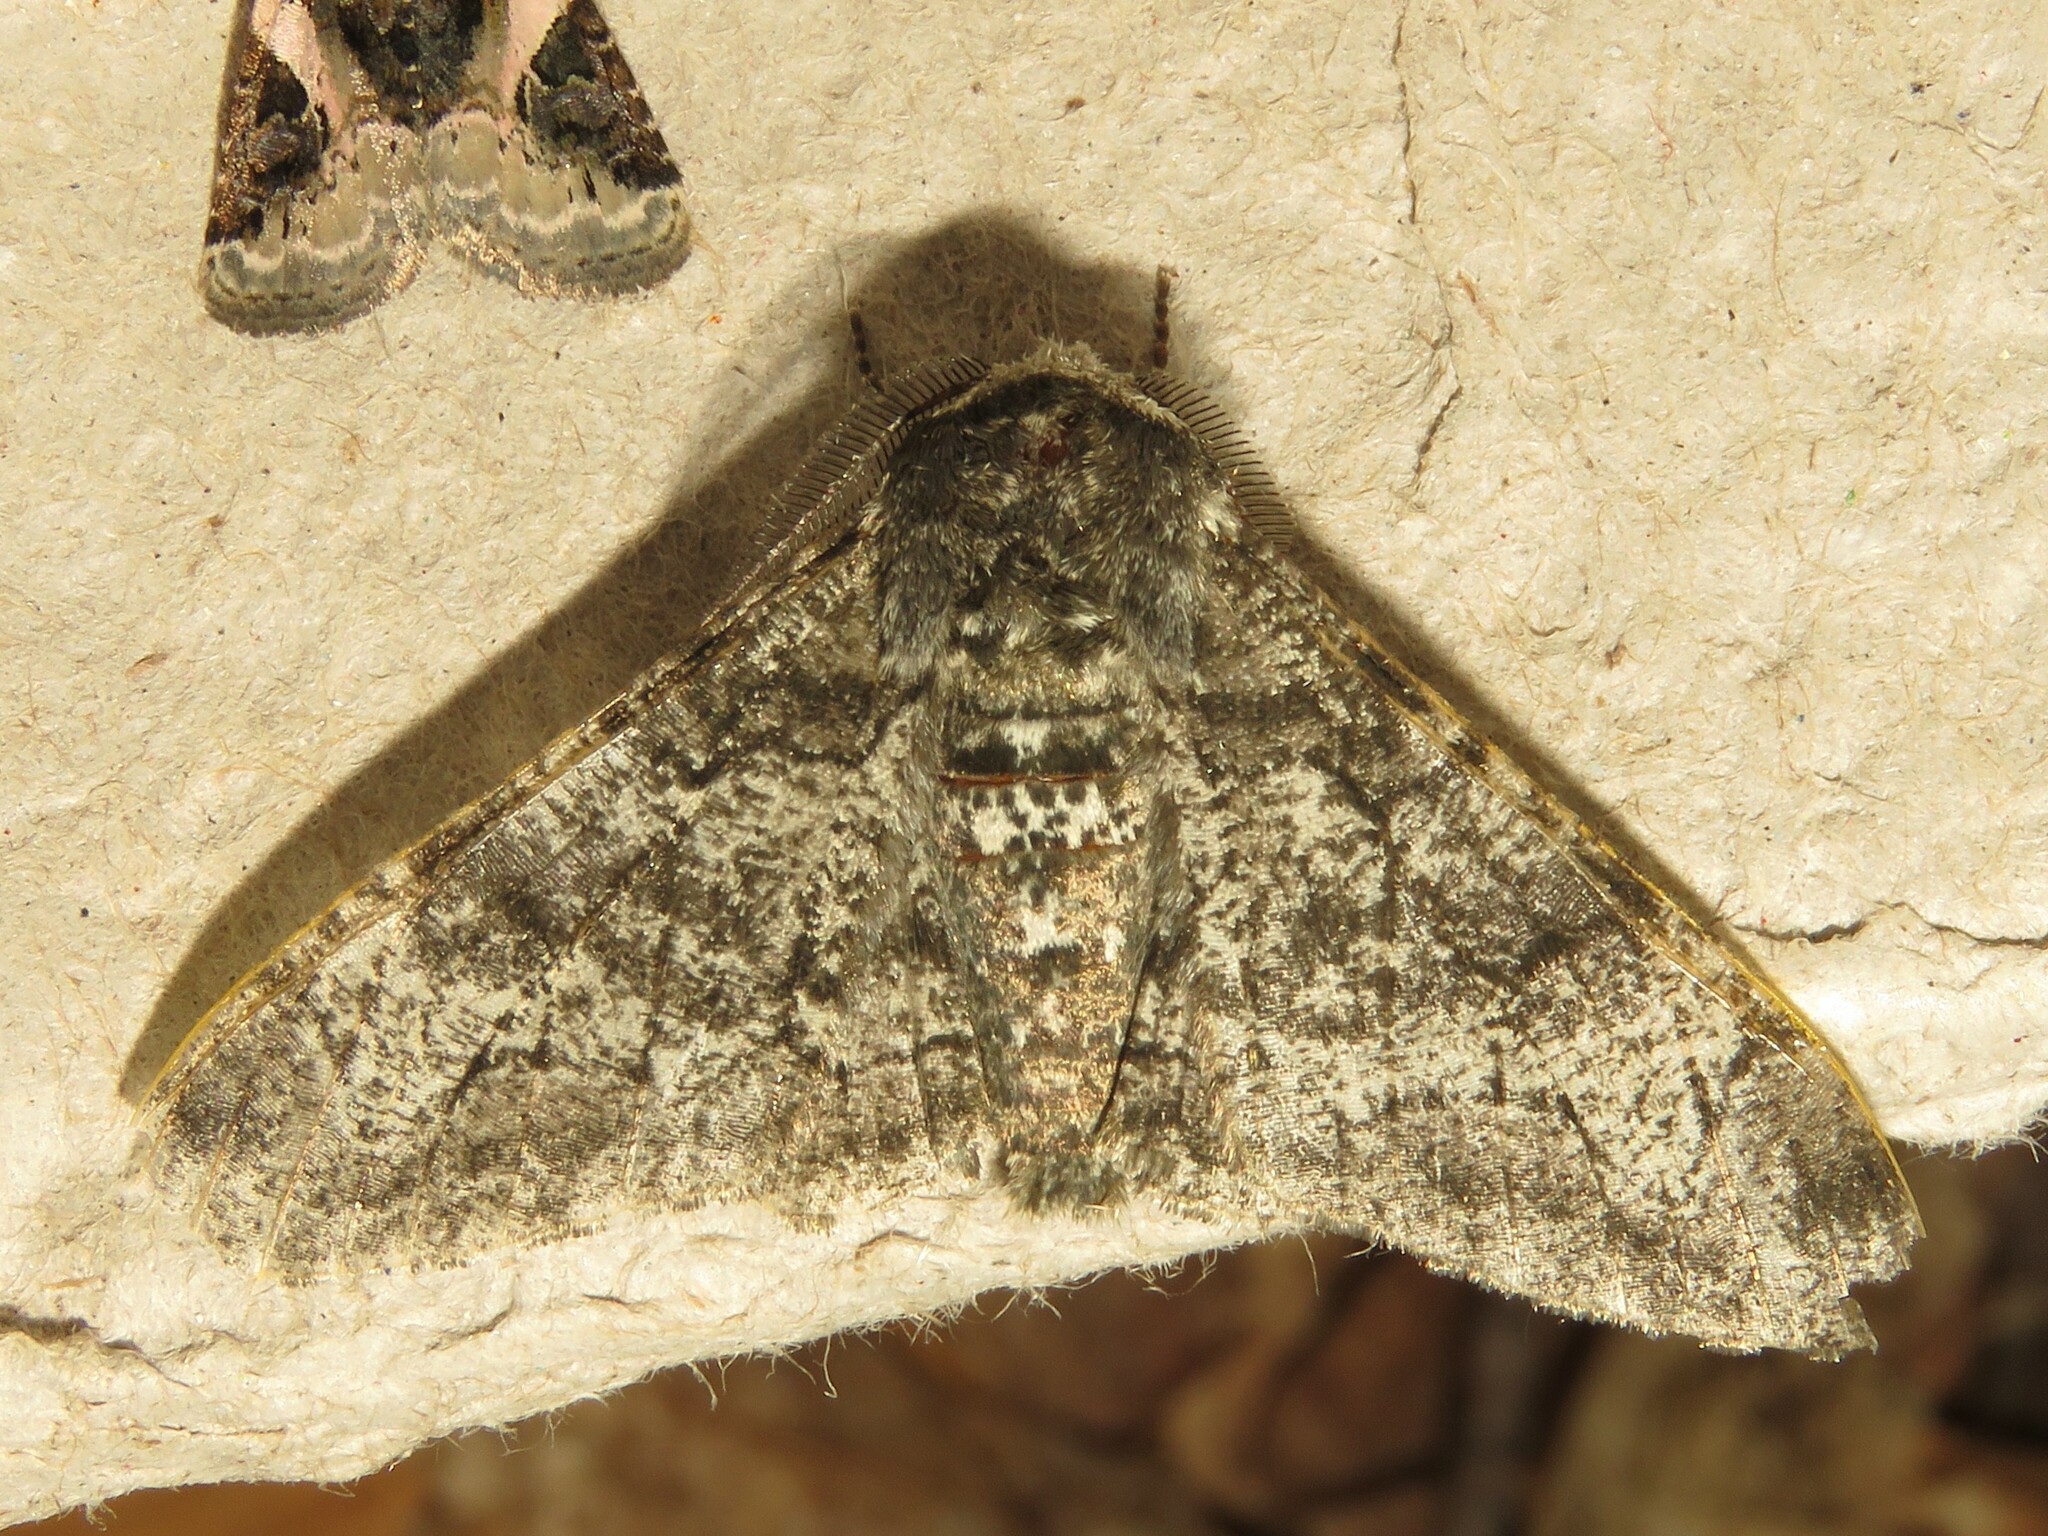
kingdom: Animalia
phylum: Arthropoda
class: Insecta
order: Lepidoptera
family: Geometridae
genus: Biston
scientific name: Biston betularia
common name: Peppered moth
